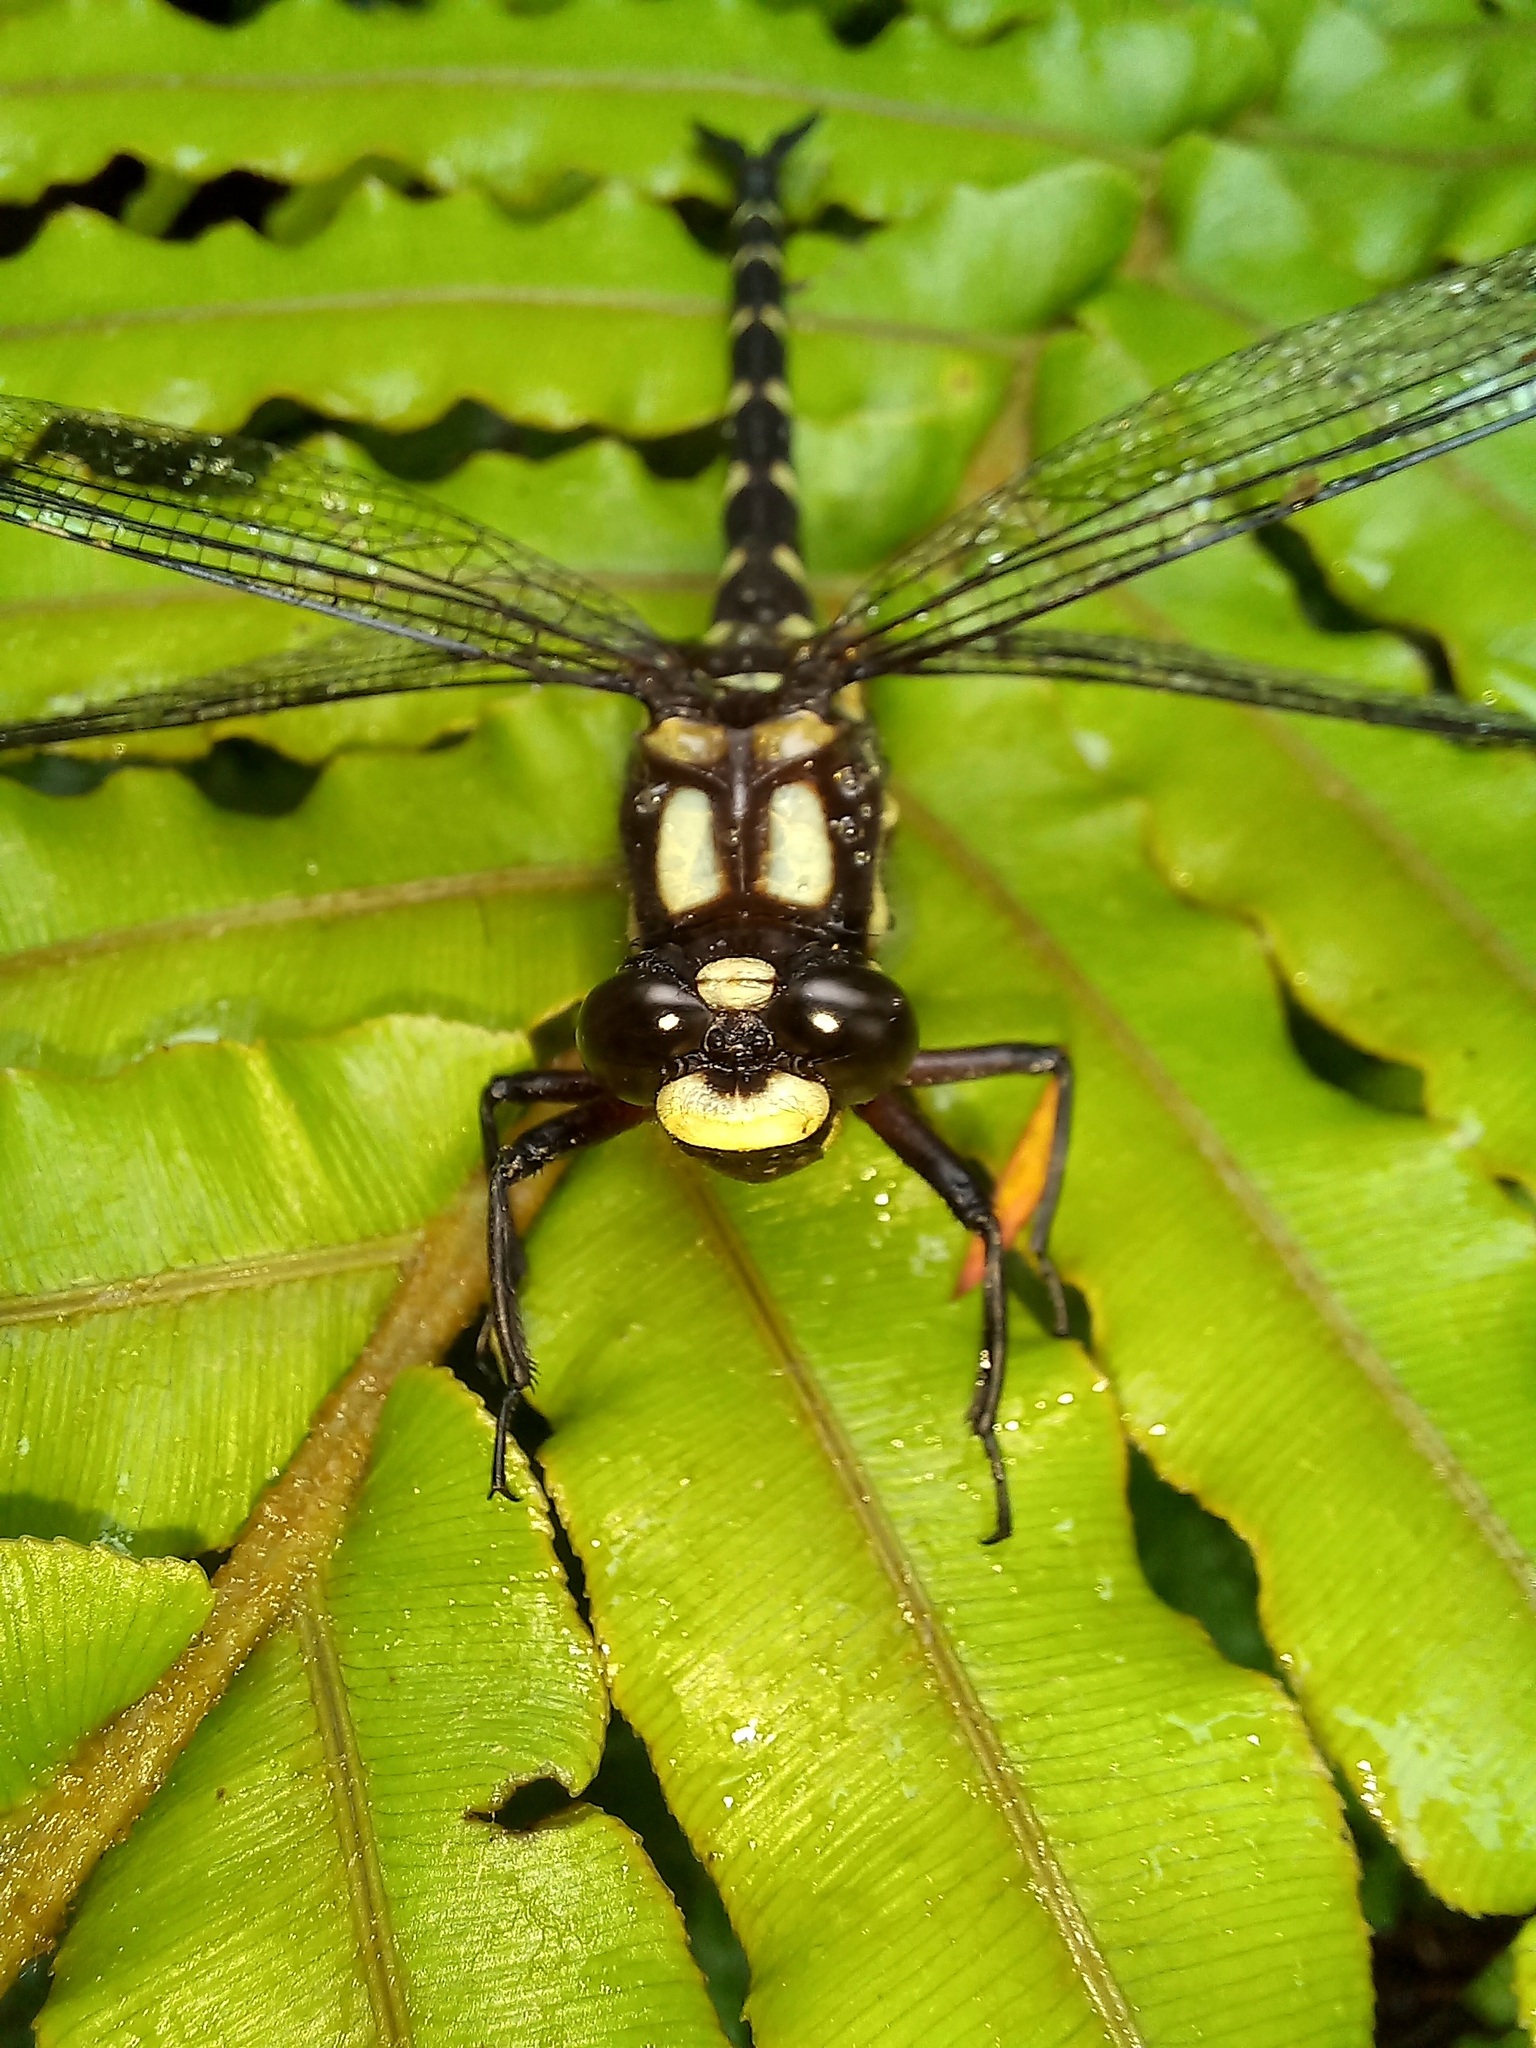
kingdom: Animalia
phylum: Arthropoda
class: Insecta
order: Odonata
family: Petaluridae
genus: Uropetala
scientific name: Uropetala carovei
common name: Bush giant dragonfly
